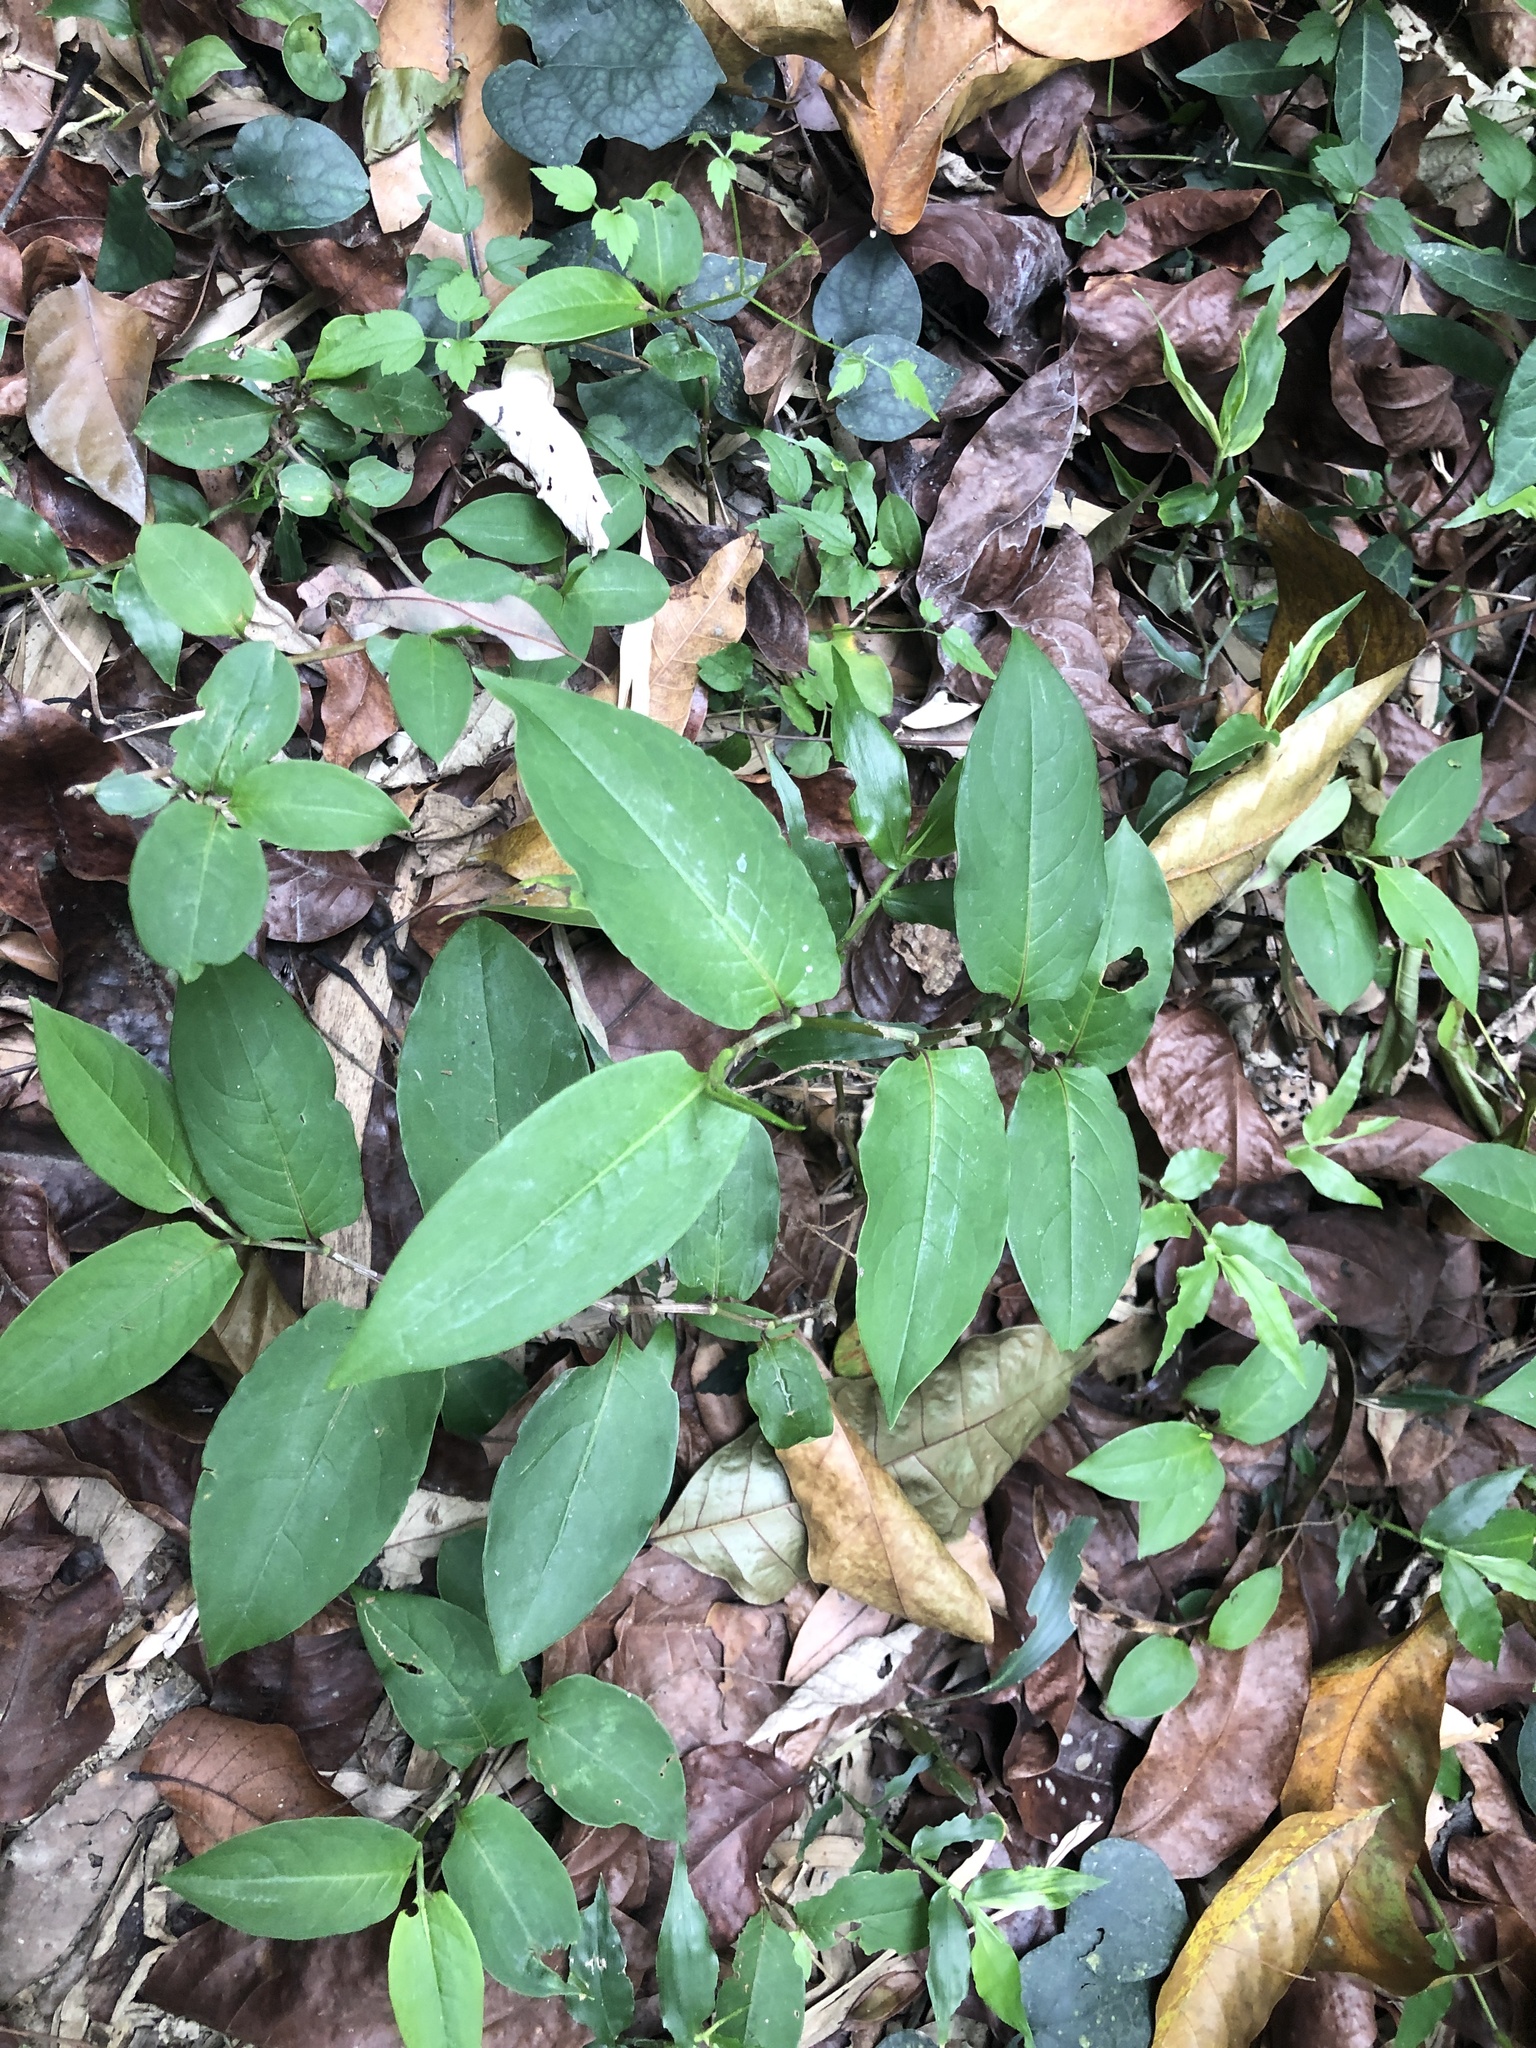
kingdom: Plantae
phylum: Tracheophyta
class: Magnoliopsida
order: Caryophyllales
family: Polygonaceae
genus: Persicaria
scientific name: Persicaria chinensis
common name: Chinese knotweed
